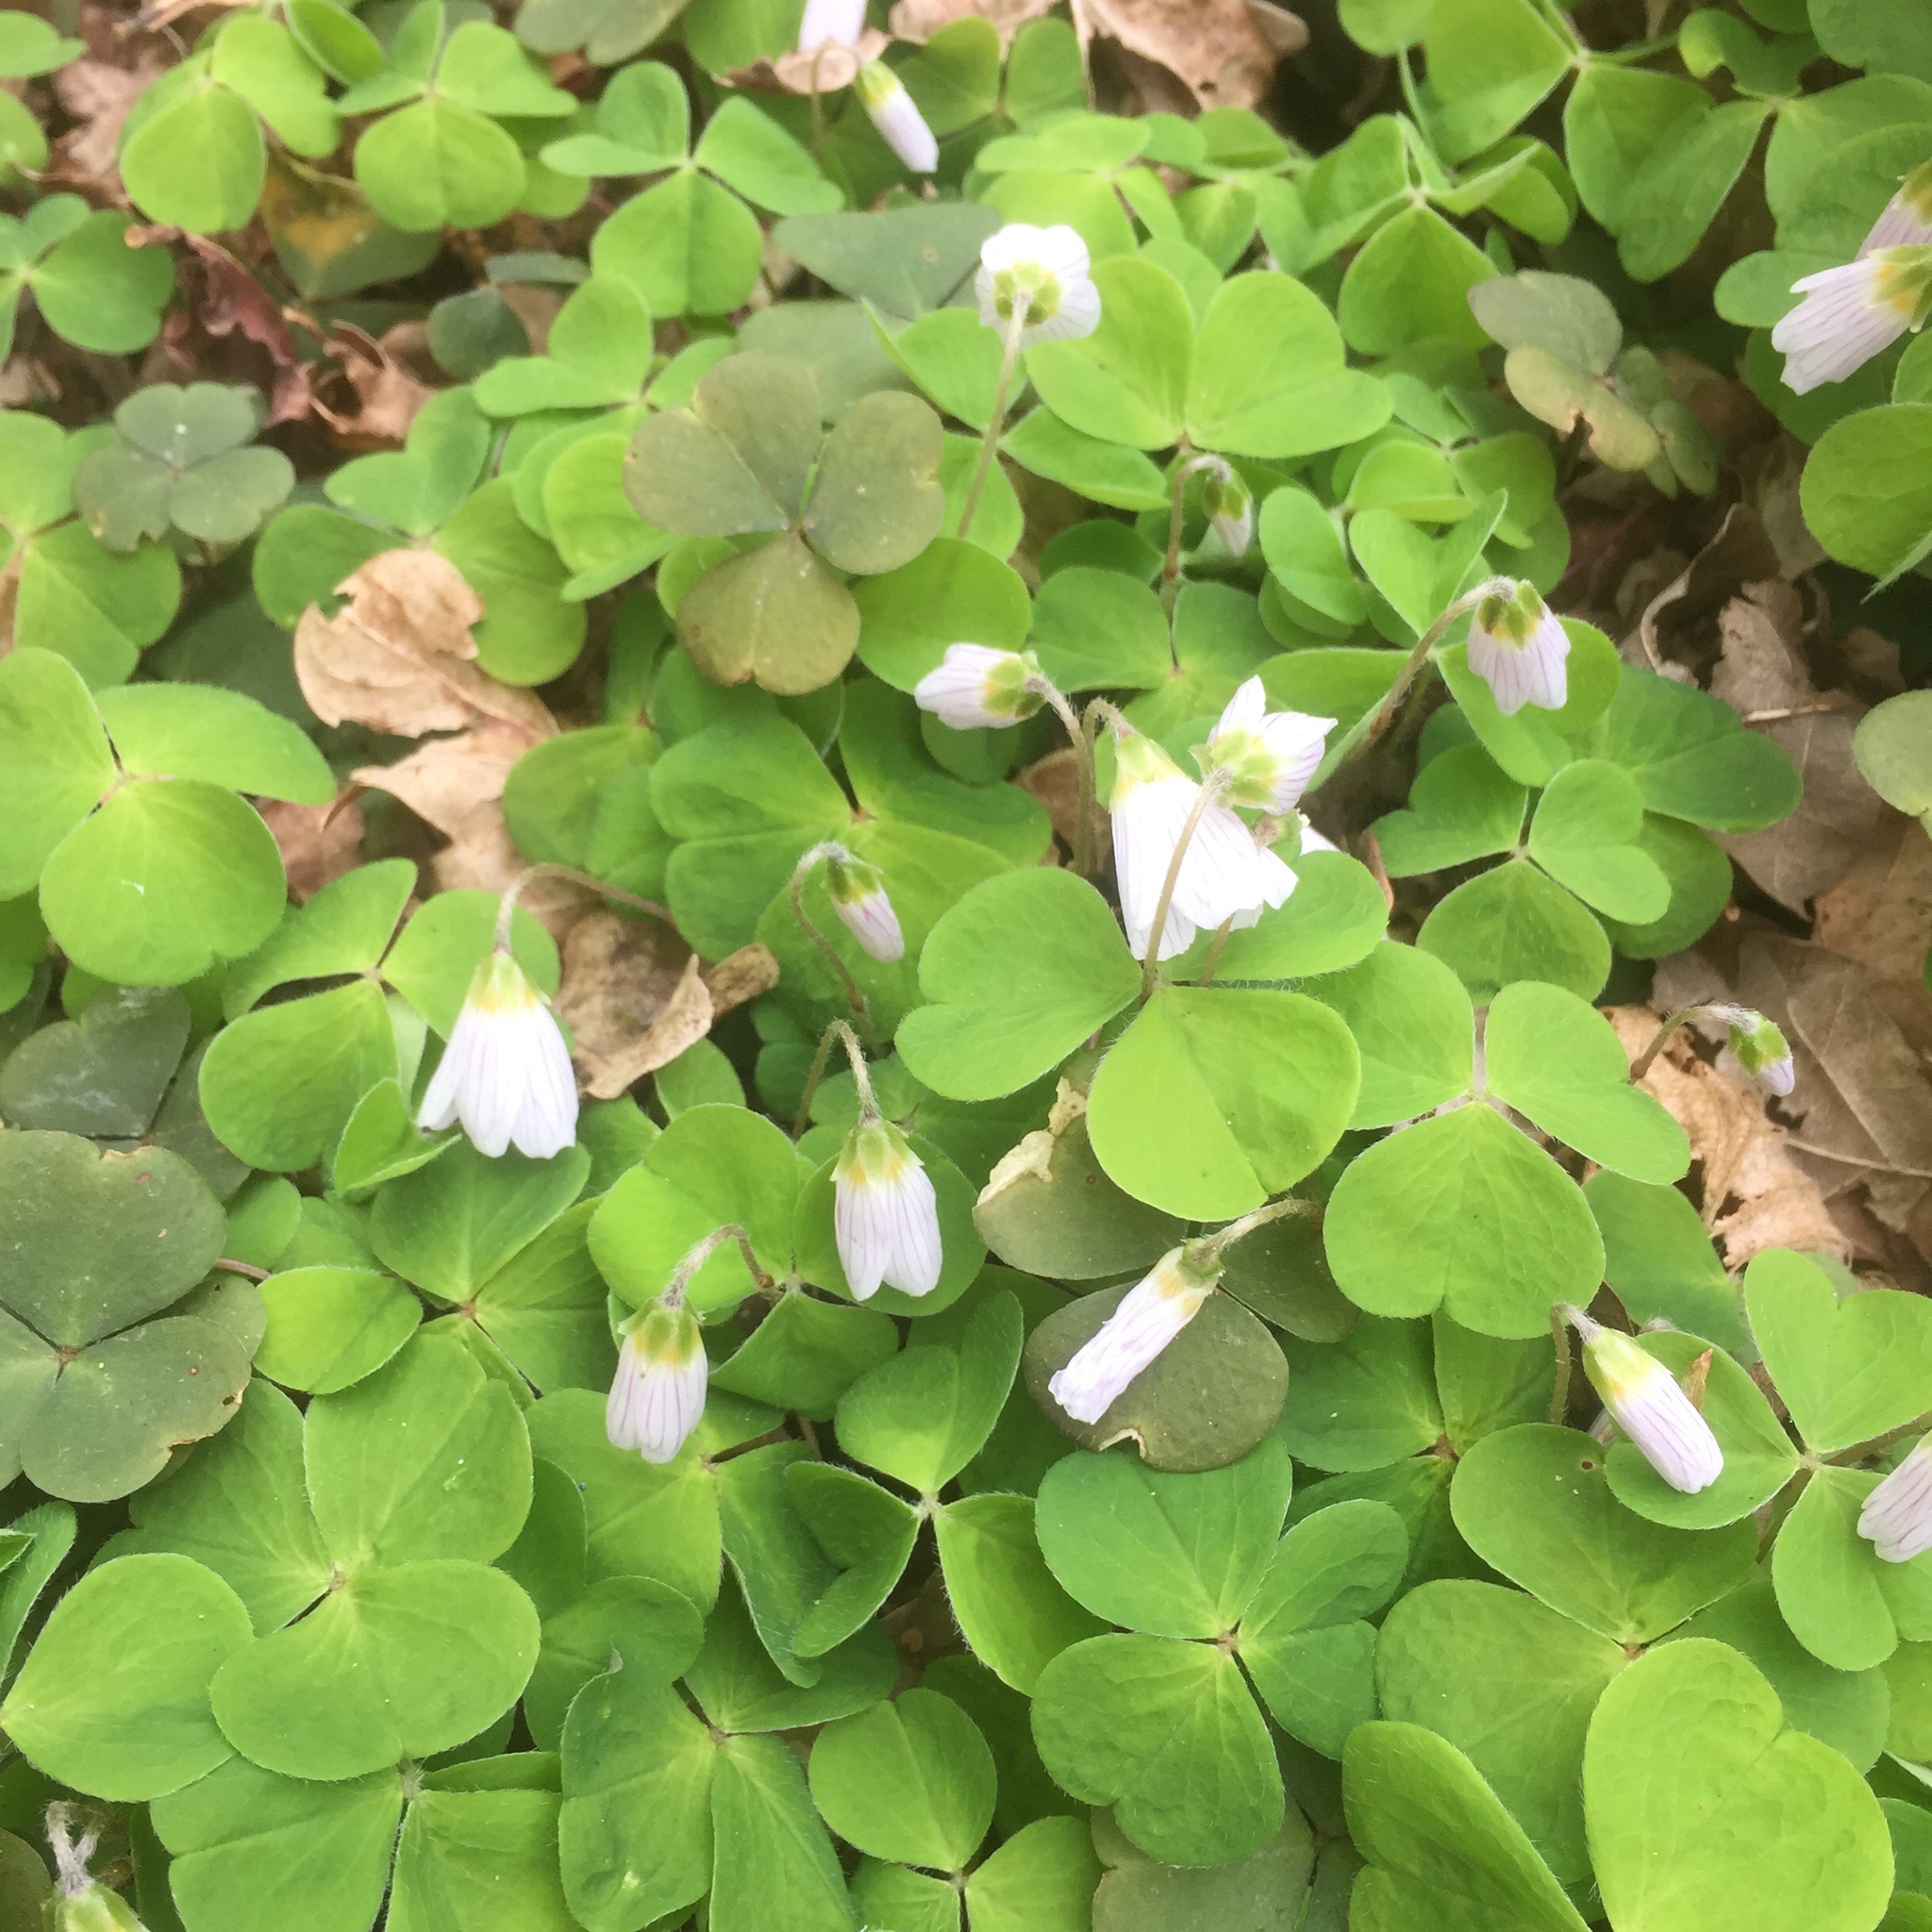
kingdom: Plantae
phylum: Tracheophyta
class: Magnoliopsida
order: Oxalidales
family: Oxalidaceae
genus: Oxalis
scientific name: Oxalis acetosella
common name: Wood-sorrel
